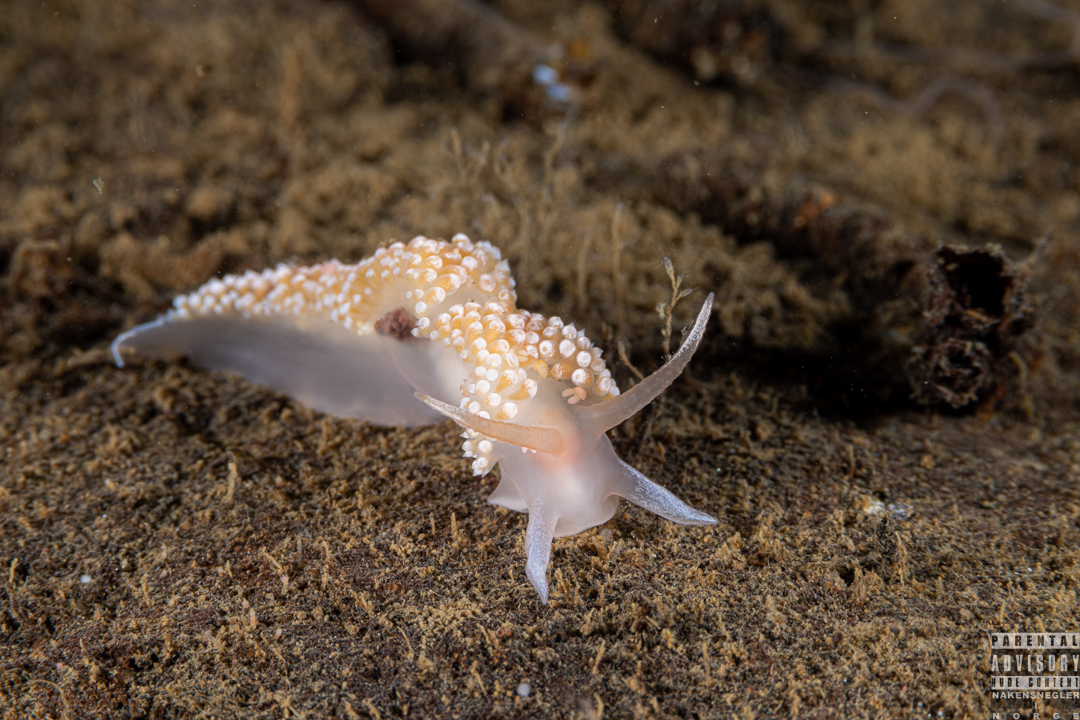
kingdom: Animalia
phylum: Mollusca
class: Gastropoda
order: Nudibranchia
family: Coryphellidae
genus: Coryphella
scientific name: Coryphella verrucosa
